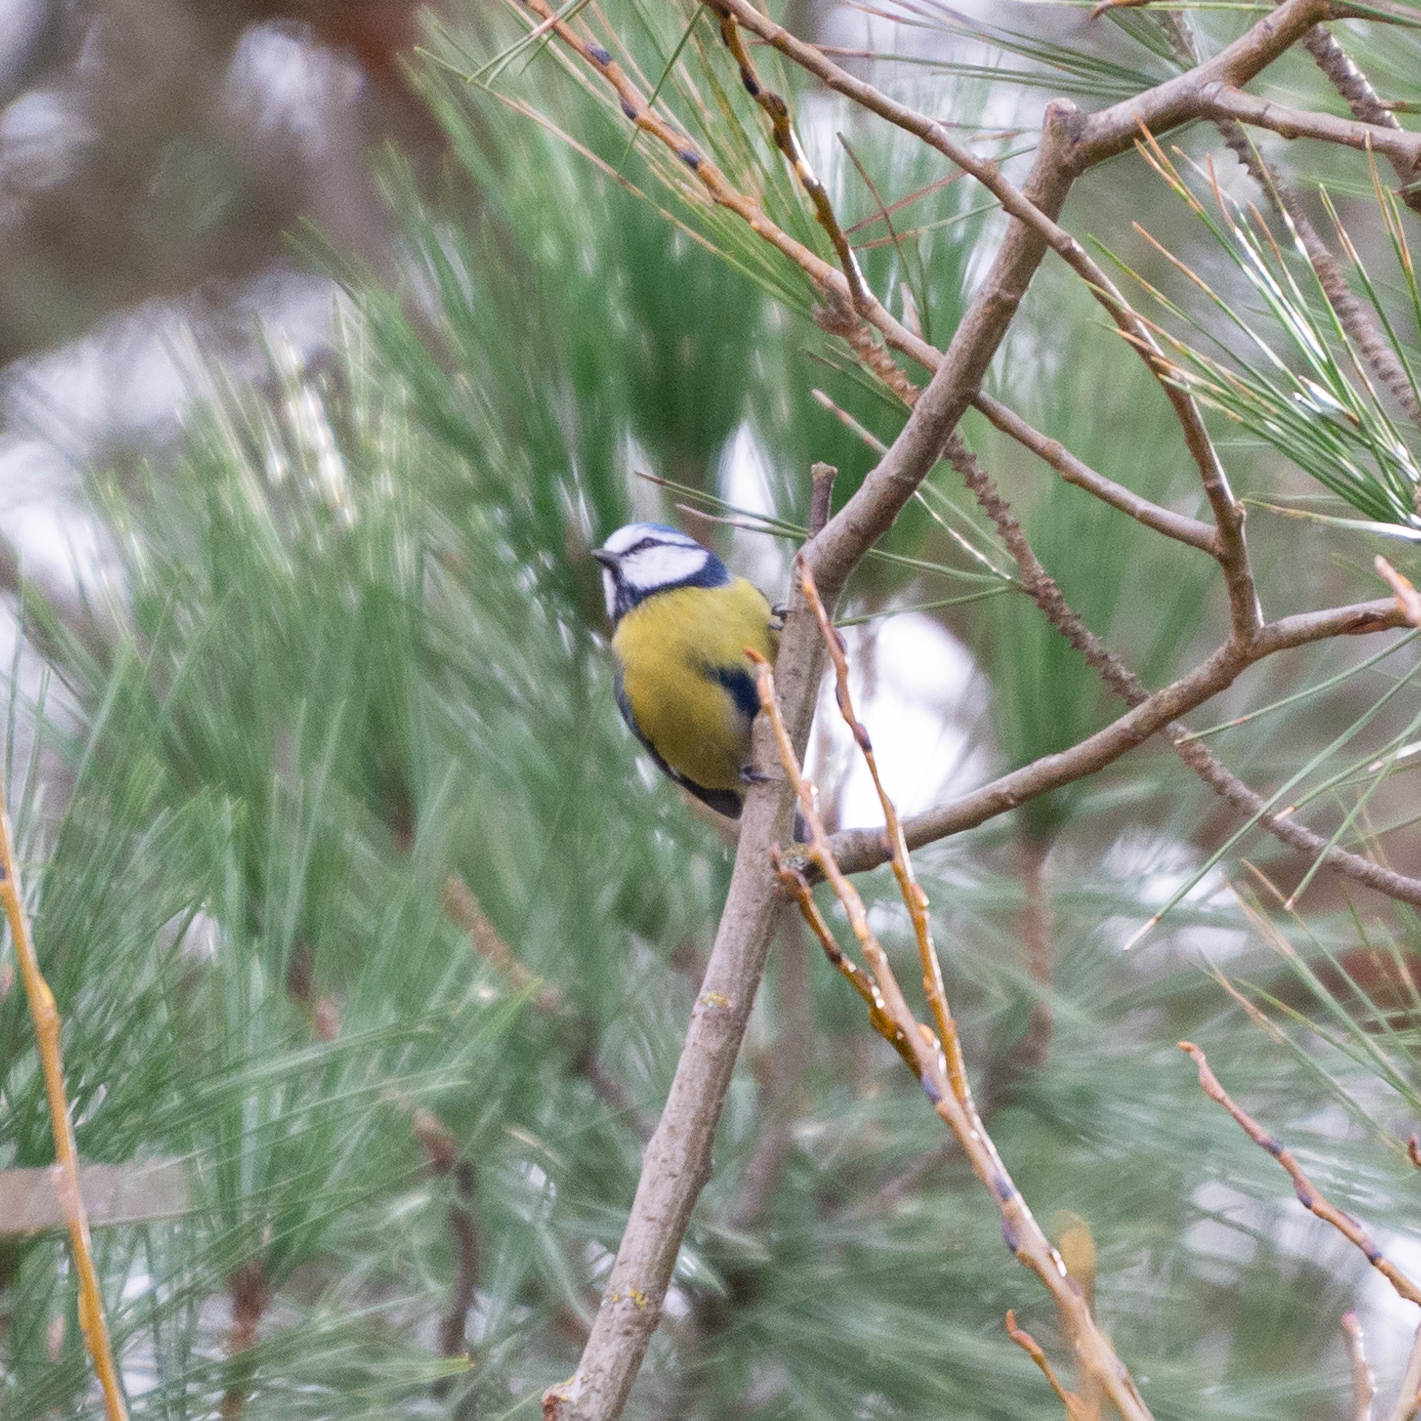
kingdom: Animalia
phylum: Chordata
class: Aves
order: Passeriformes
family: Paridae
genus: Cyanistes
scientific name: Cyanistes caeruleus
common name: Eurasian blue tit
